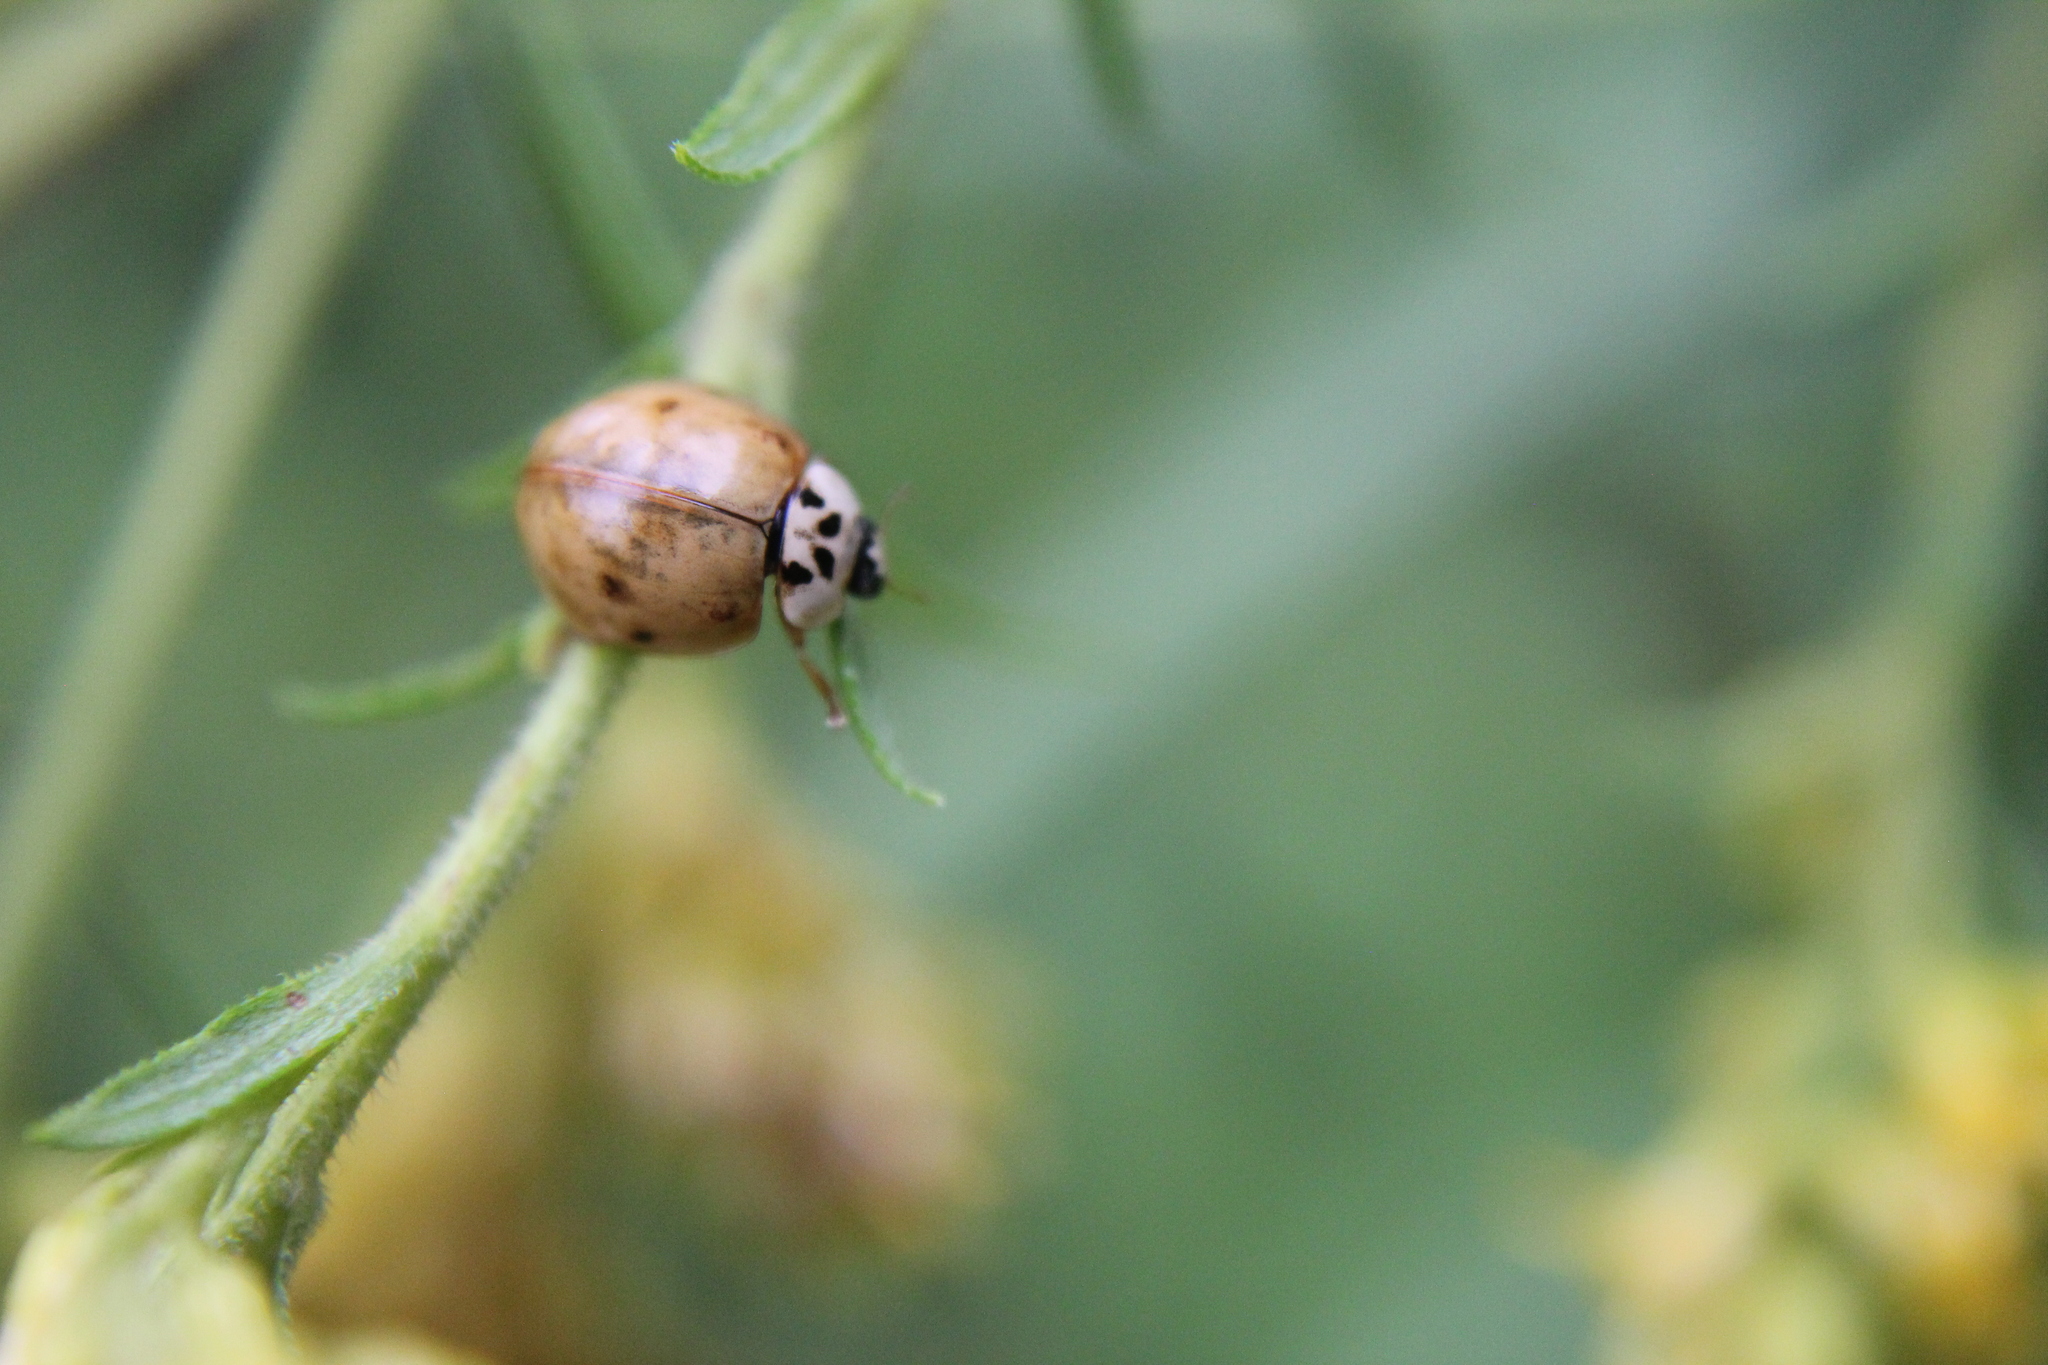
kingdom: Animalia
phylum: Arthropoda
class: Insecta
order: Coleoptera
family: Coccinellidae
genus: Harmonia
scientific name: Harmonia axyridis
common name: Harlequin ladybird
